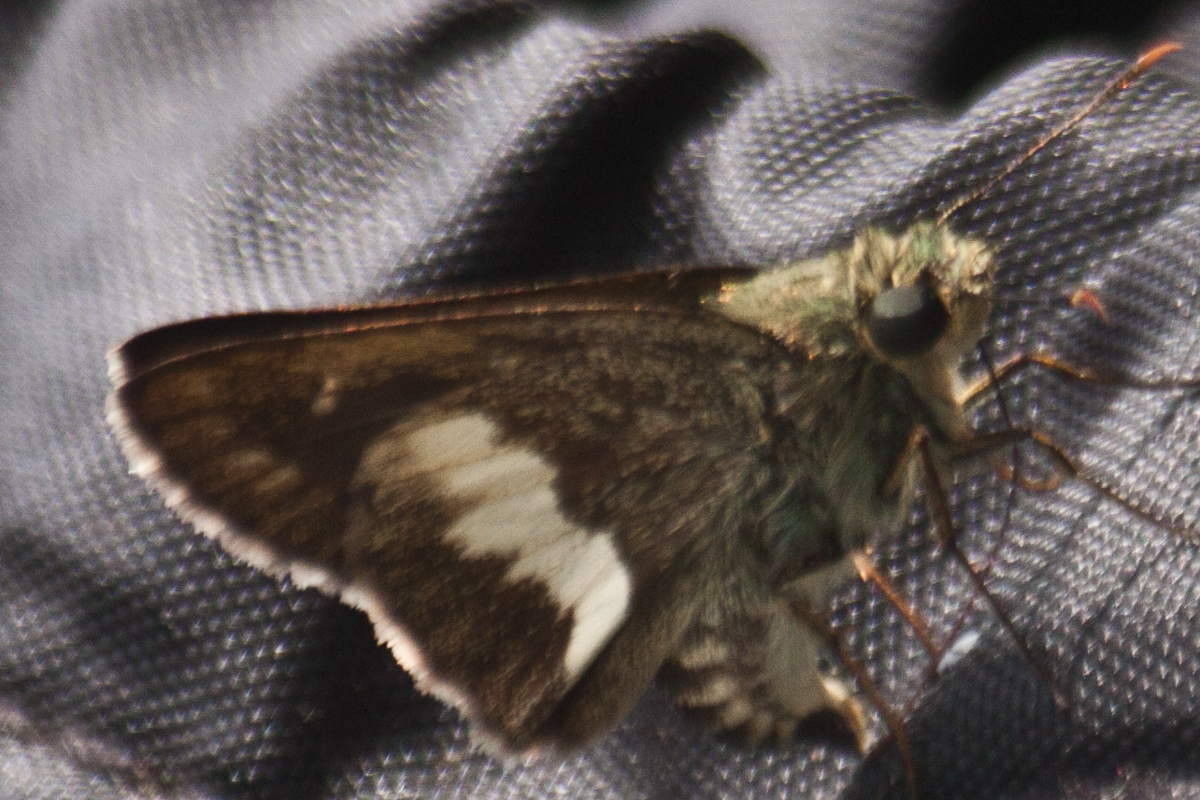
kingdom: Animalia
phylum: Arthropoda
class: Insecta
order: Lepidoptera
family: Hesperiidae
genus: Halpe
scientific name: Halpe zola
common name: Long-banded ace
